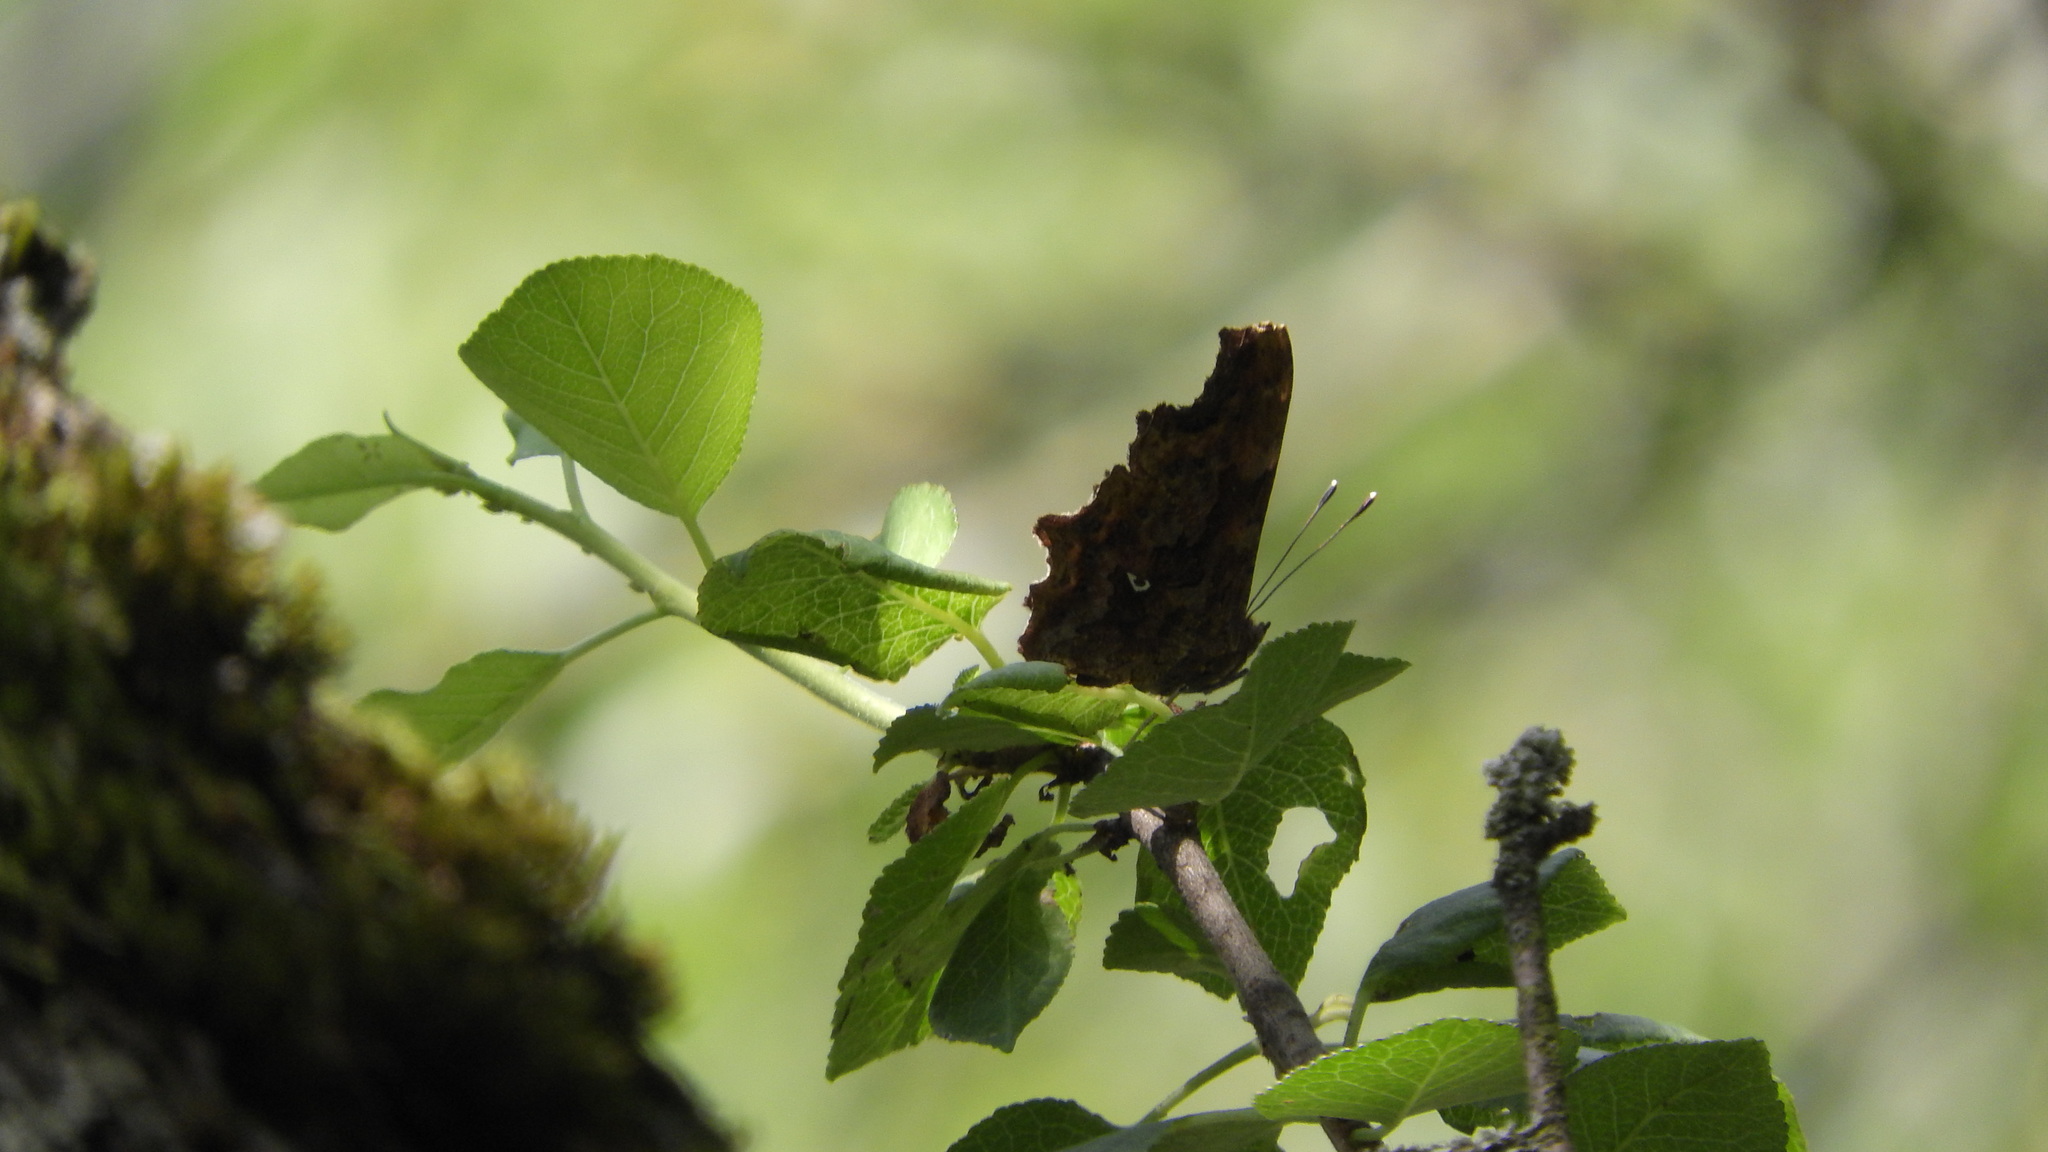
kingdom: Animalia
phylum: Arthropoda
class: Insecta
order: Lepidoptera
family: Nymphalidae
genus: Polygonia
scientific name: Polygonia c-album
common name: Comma
